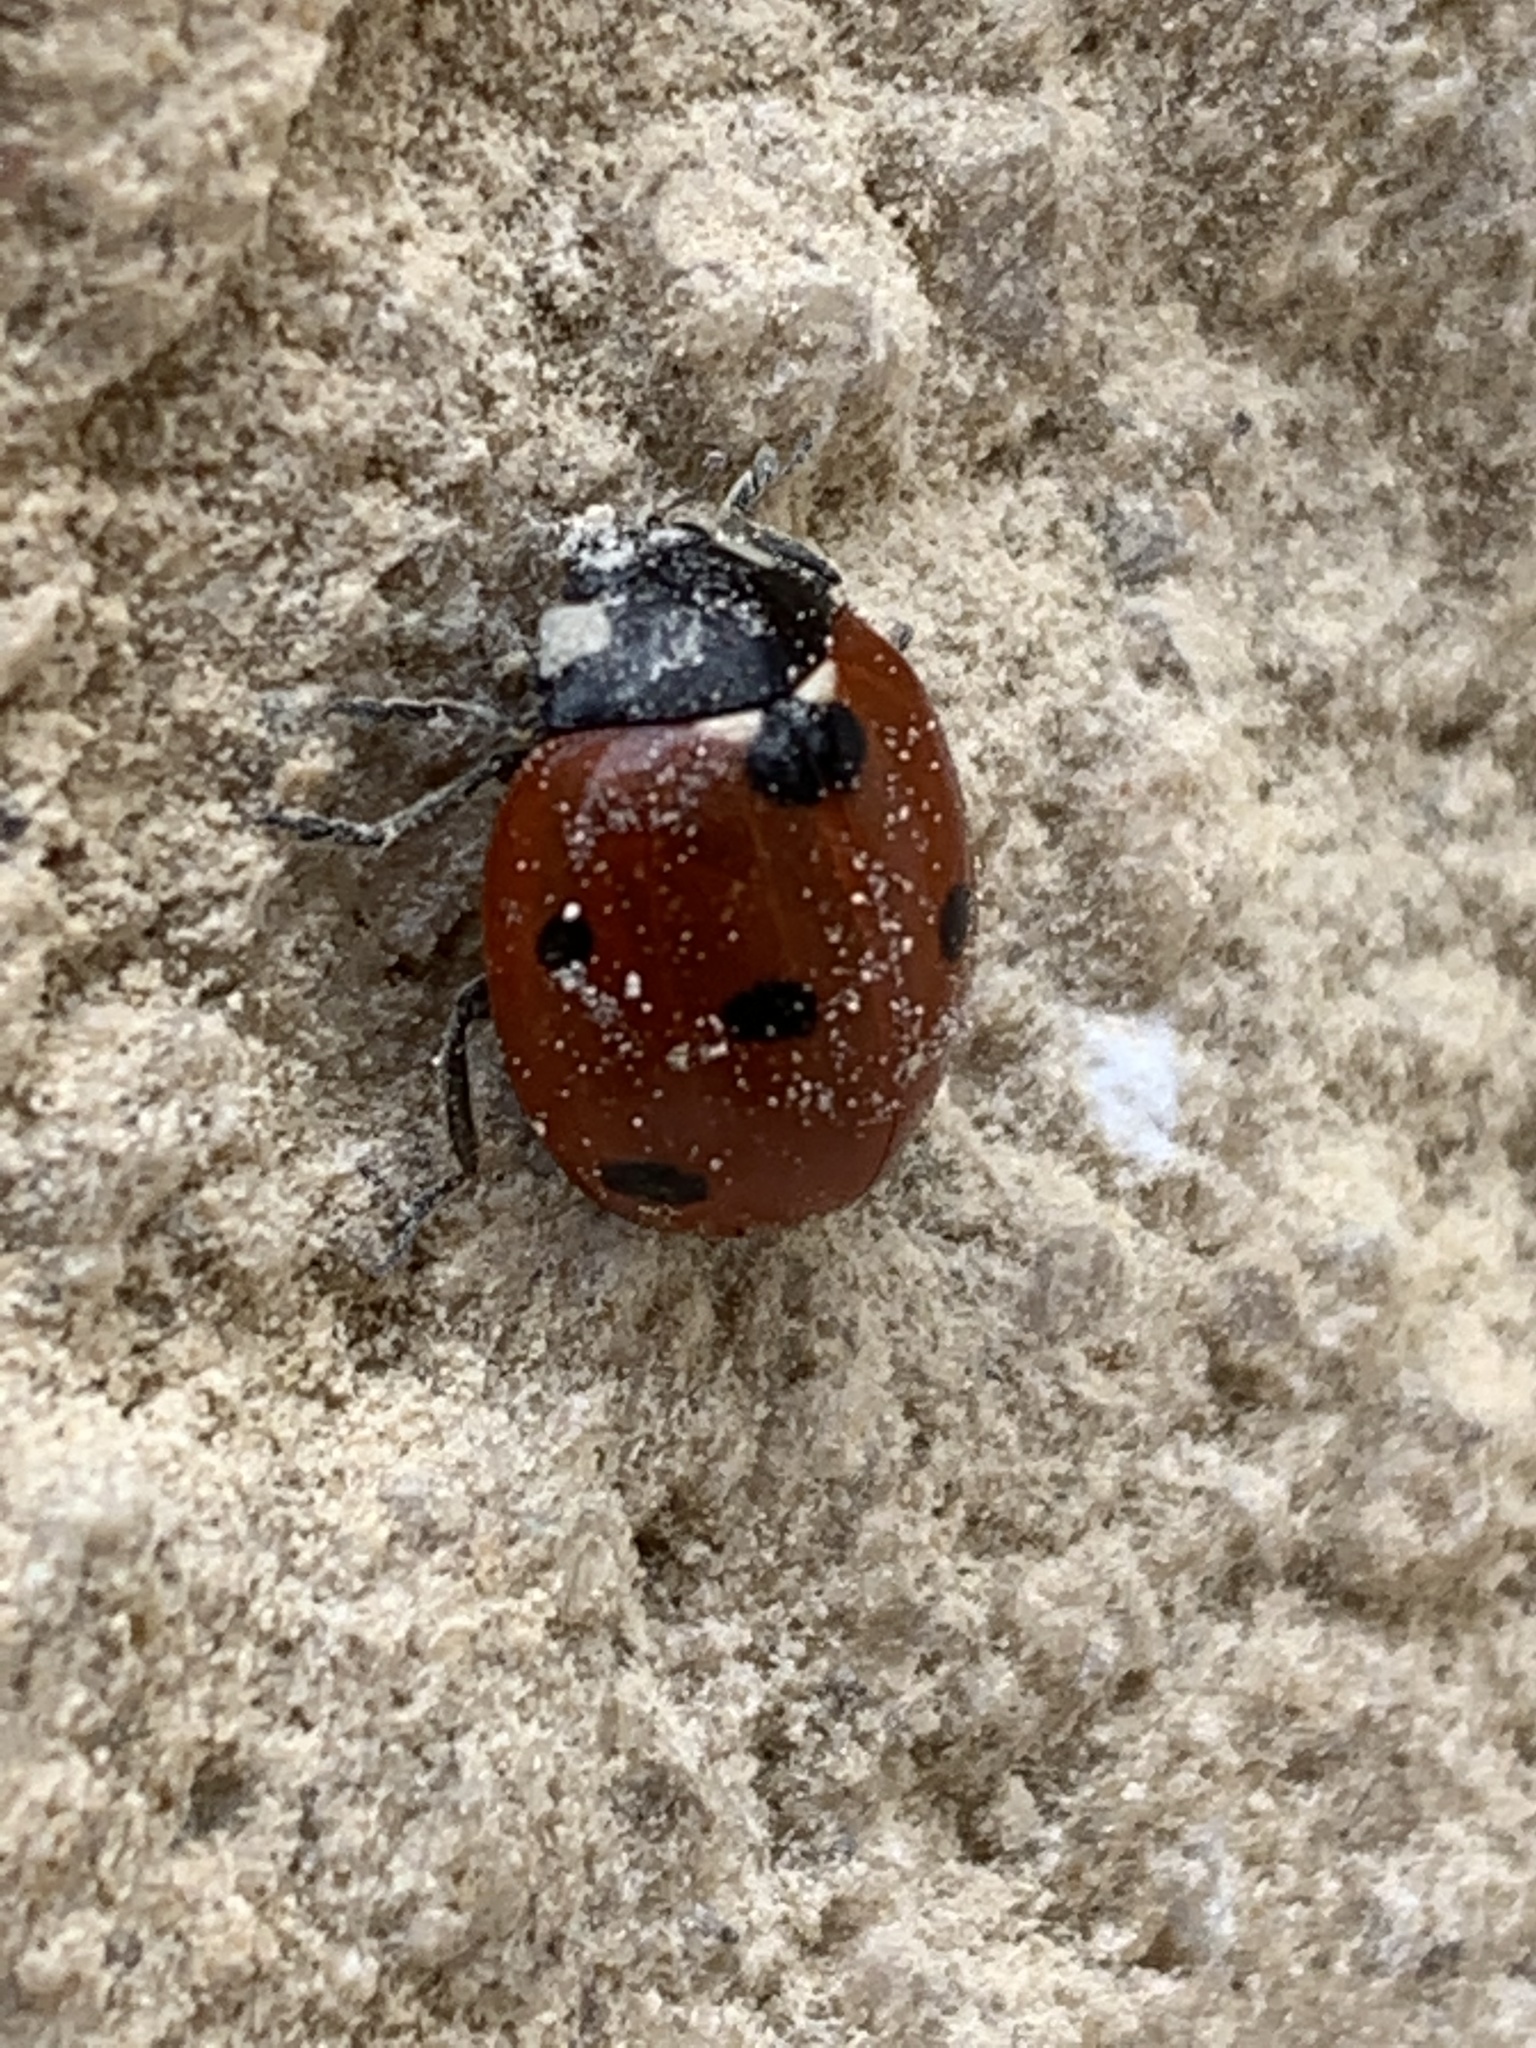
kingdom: Animalia
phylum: Arthropoda
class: Insecta
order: Coleoptera
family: Coccinellidae
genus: Coccinella
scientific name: Coccinella septempunctata
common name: Sevenspotted lady beetle
